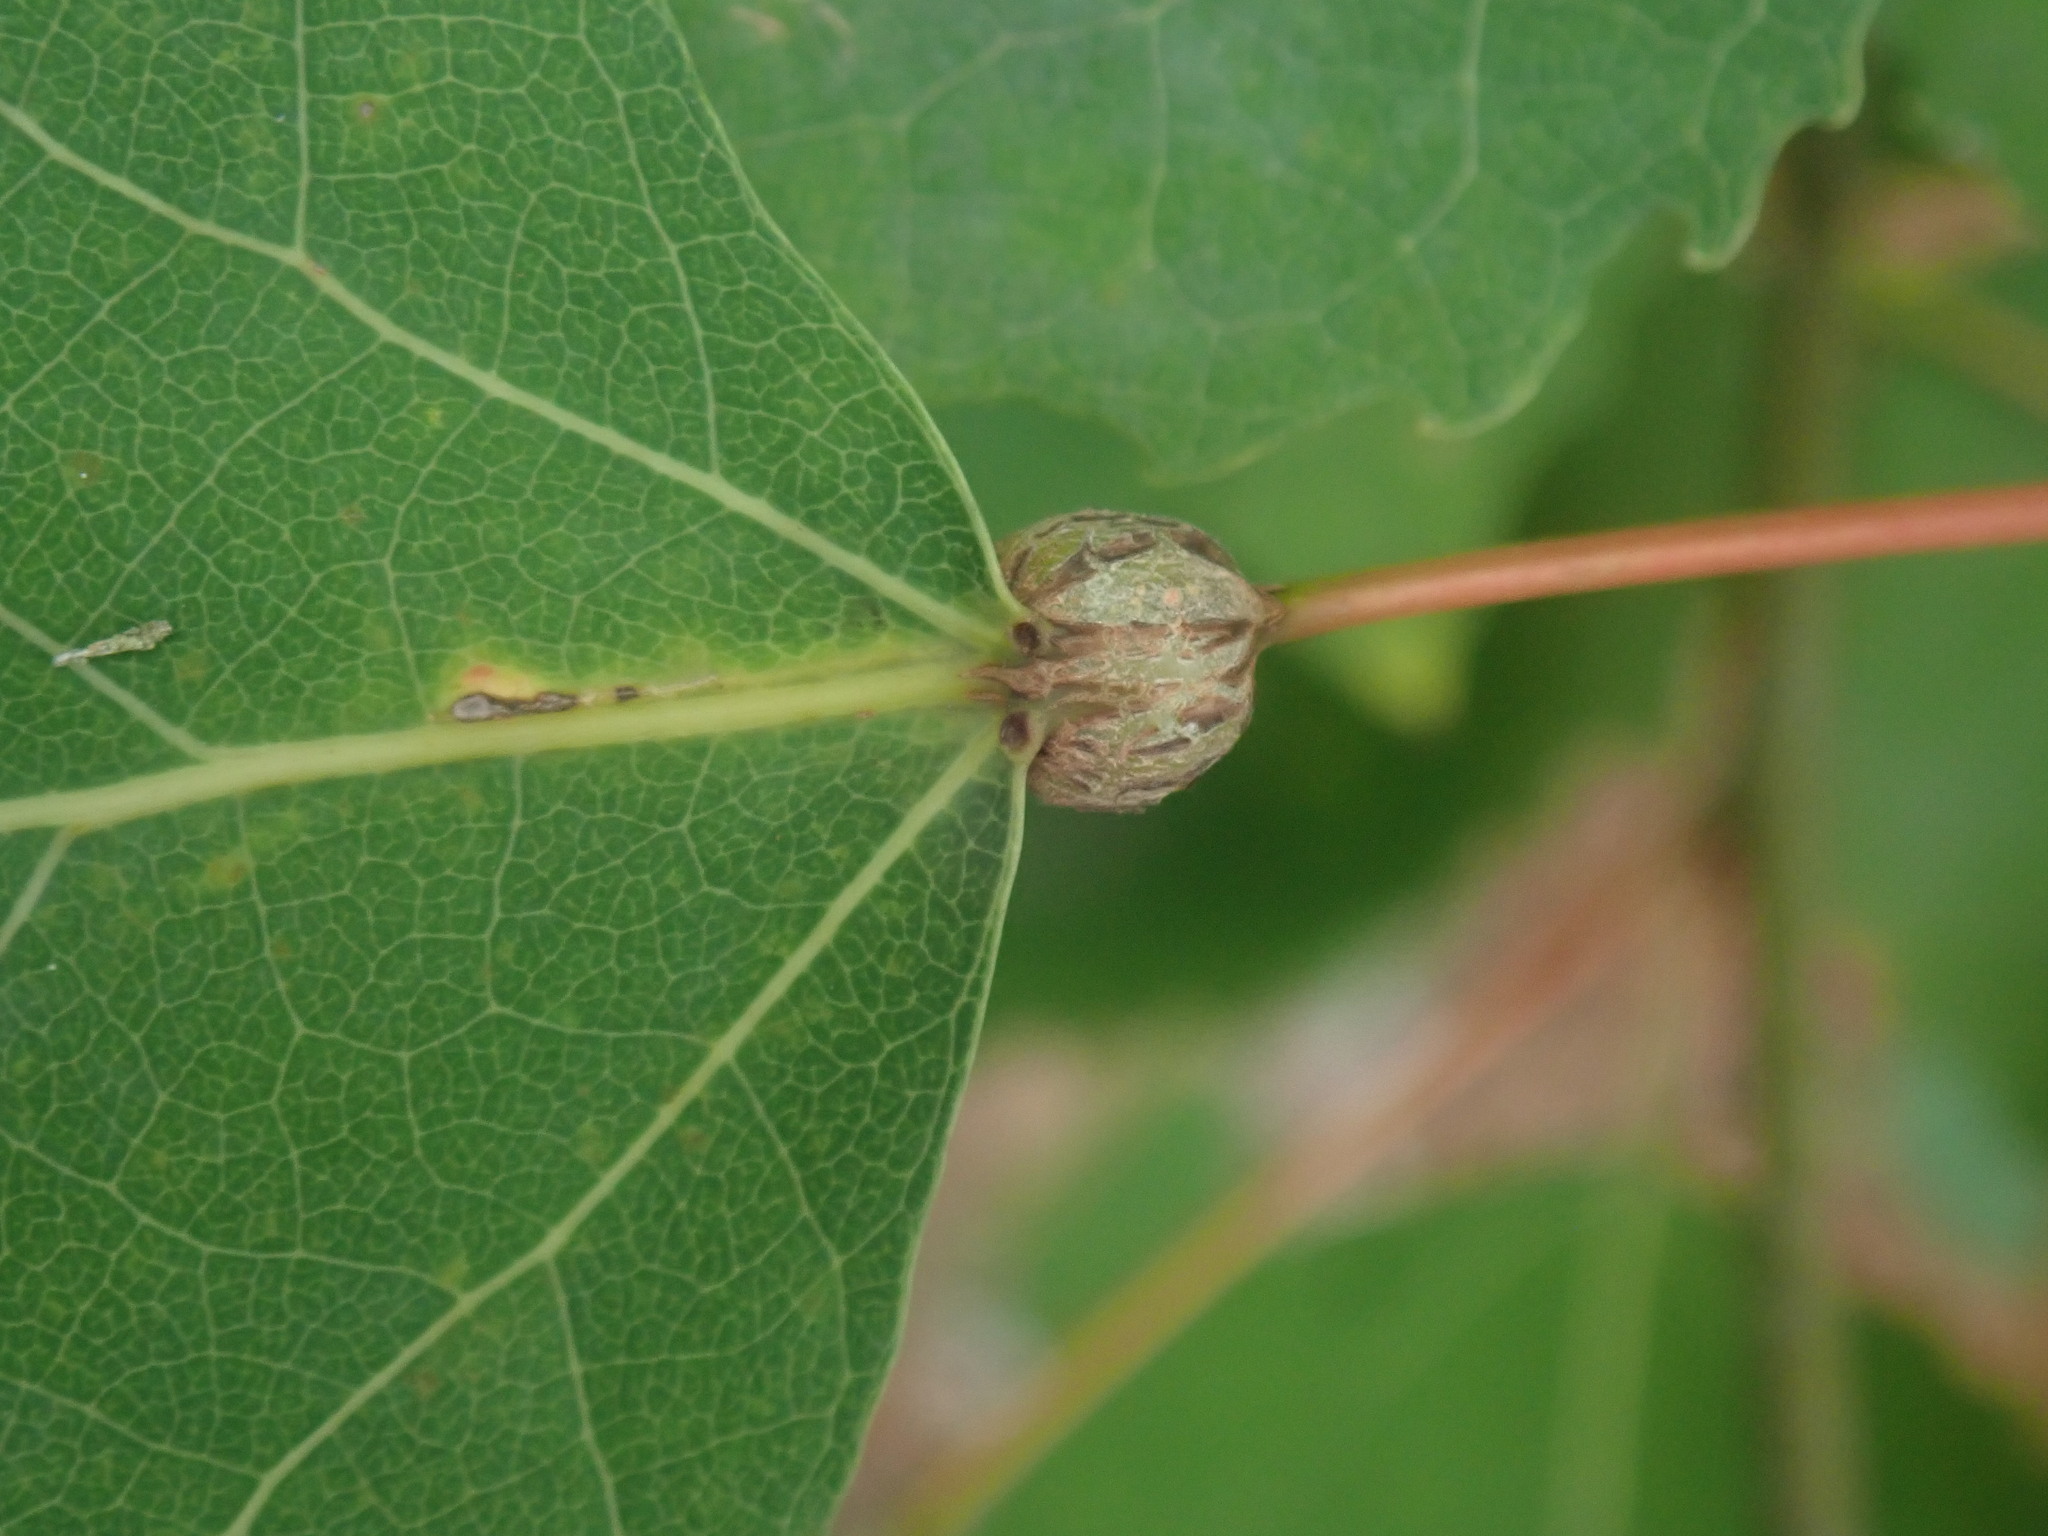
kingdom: Animalia
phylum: Arthropoda
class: Insecta
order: Lepidoptera
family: Nepticulidae
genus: Ectoedemia
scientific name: Ectoedemia populella
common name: Aspen petiole gall moth
